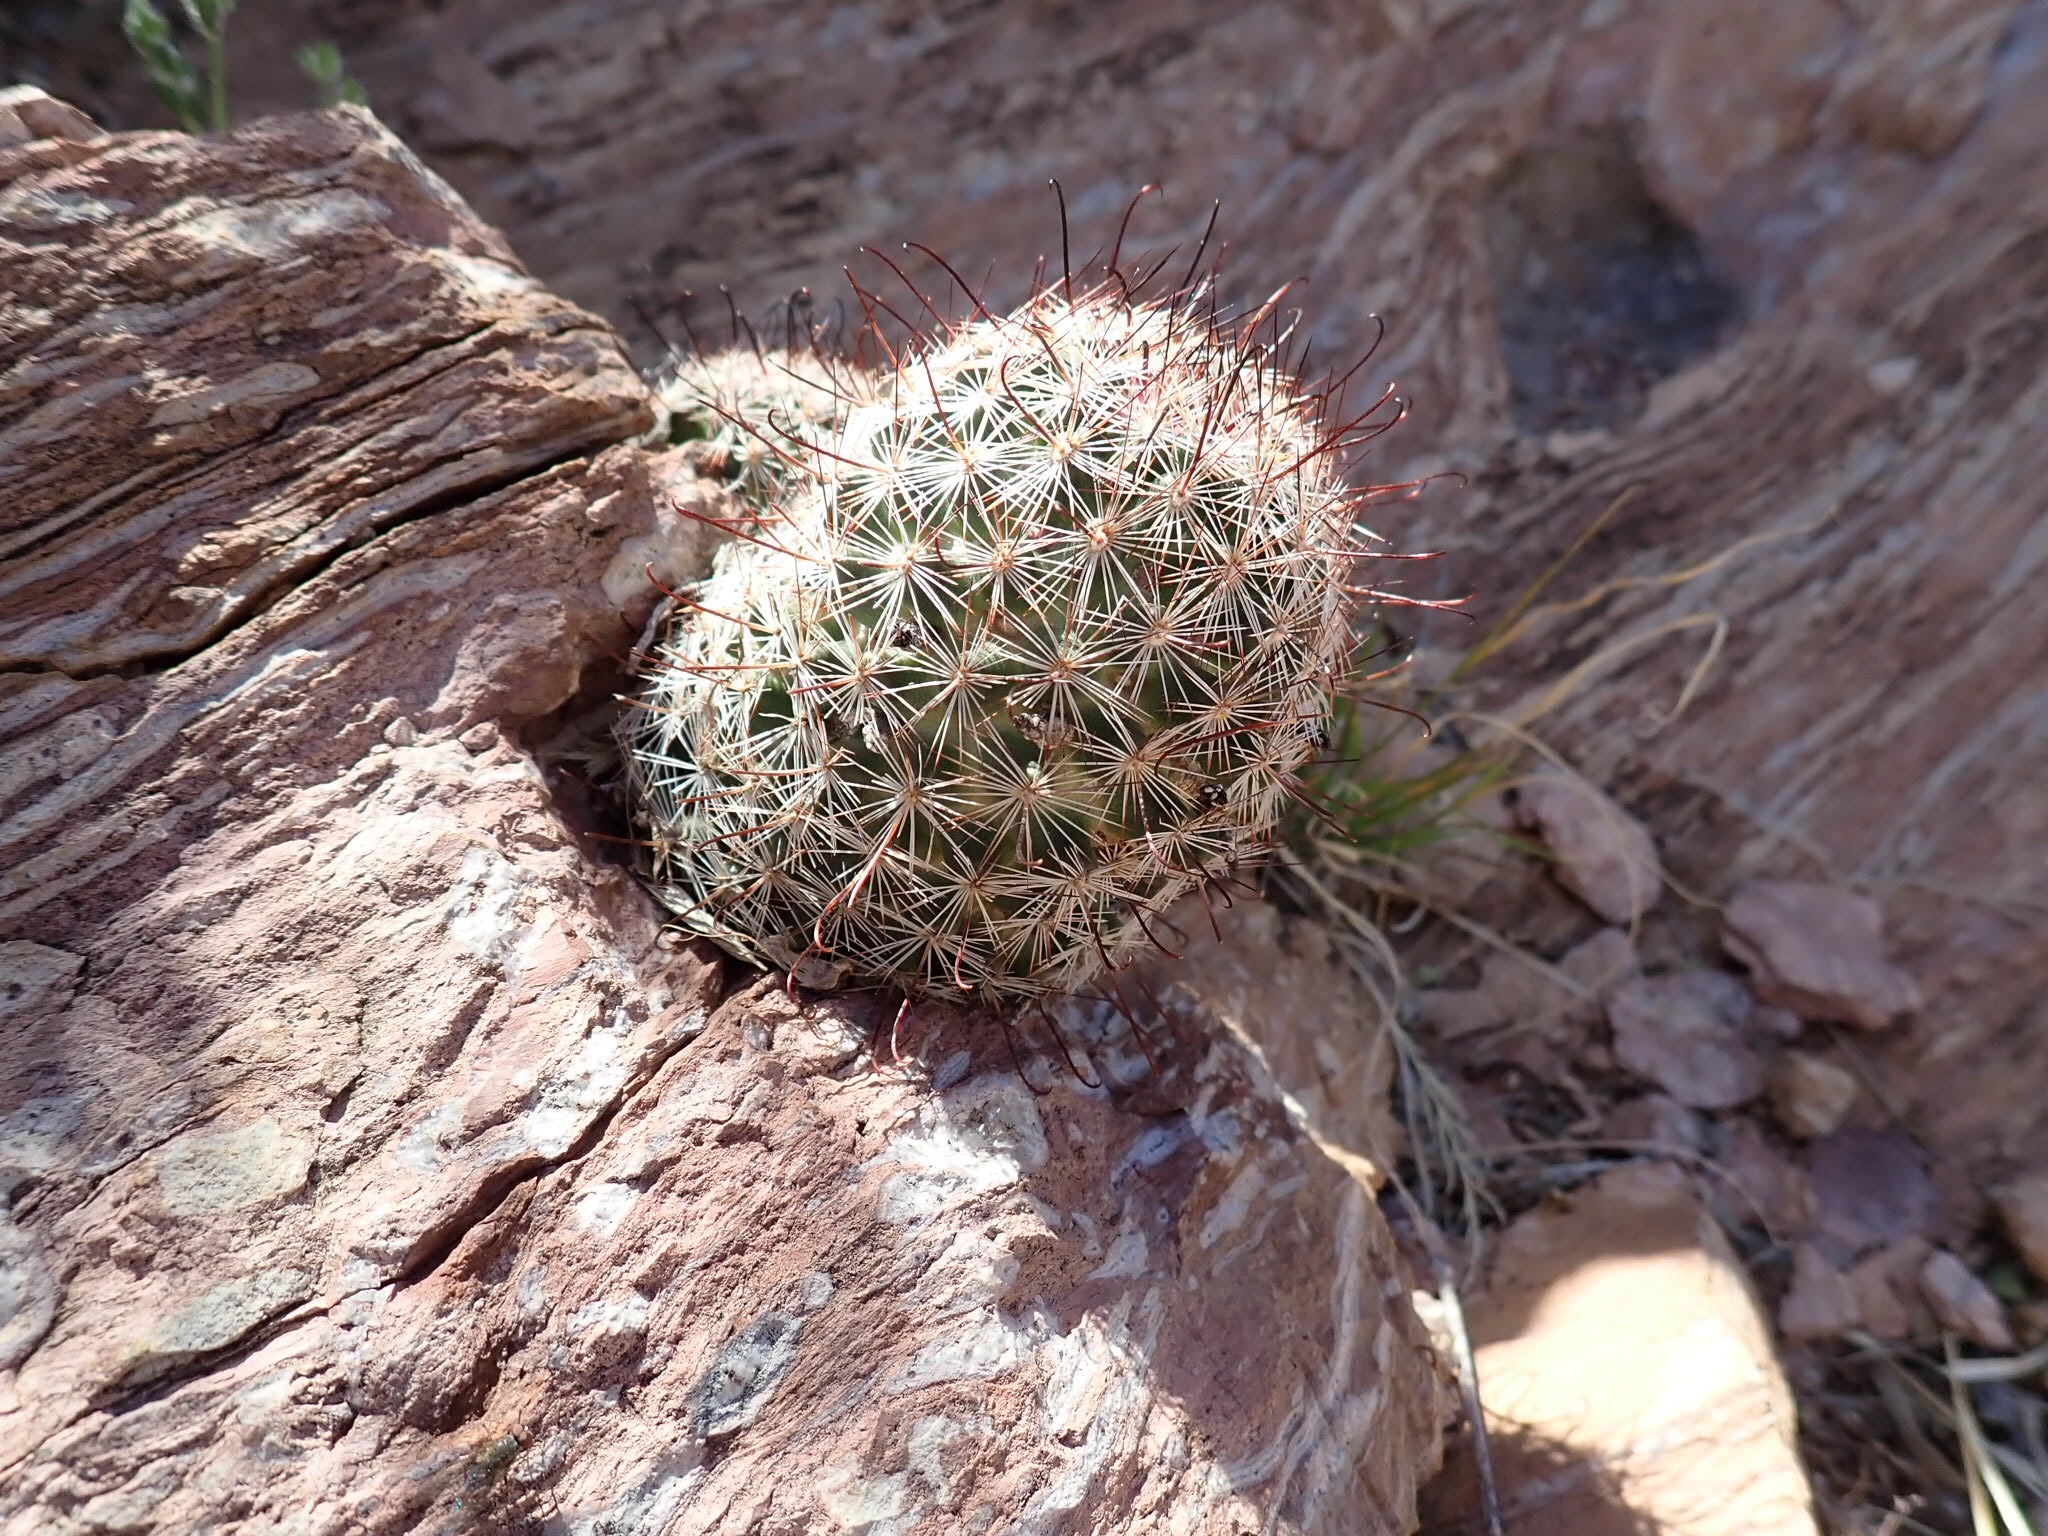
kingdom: Plantae
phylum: Tracheophyta
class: Magnoliopsida
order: Caryophyllales
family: Cactaceae
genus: Cochemiea
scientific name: Cochemiea tetrancistra
